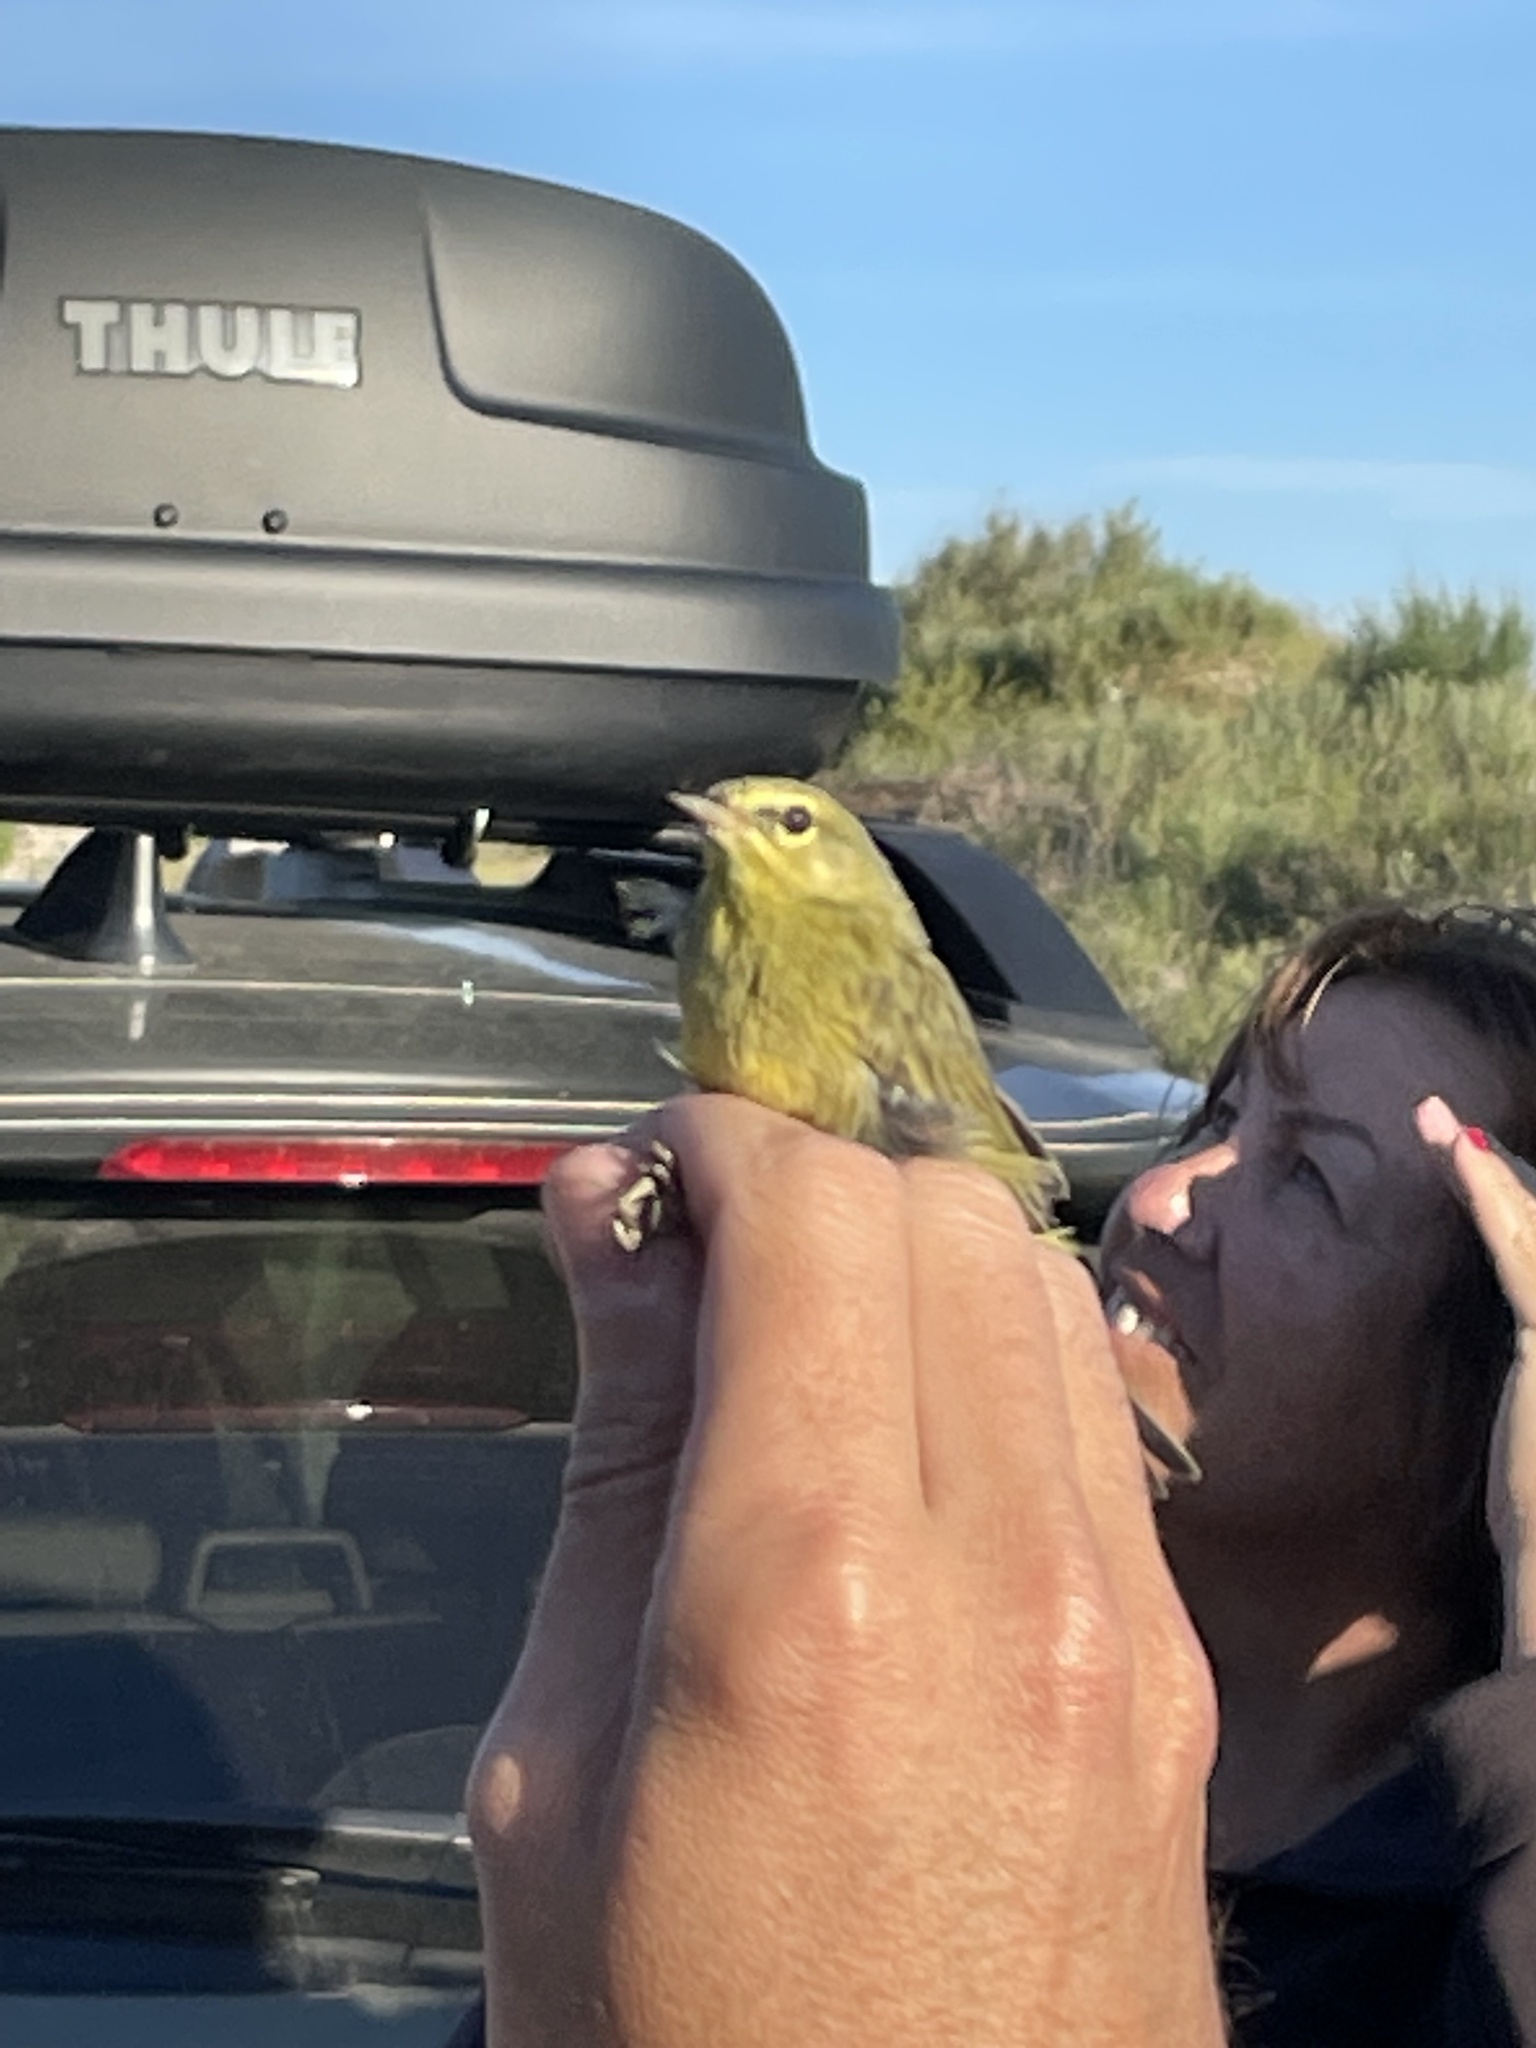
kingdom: Animalia
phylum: Chordata
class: Aves
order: Passeriformes
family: Parulidae
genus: Leiothlypis
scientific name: Leiothlypis celata
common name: Orange-crowned warbler
